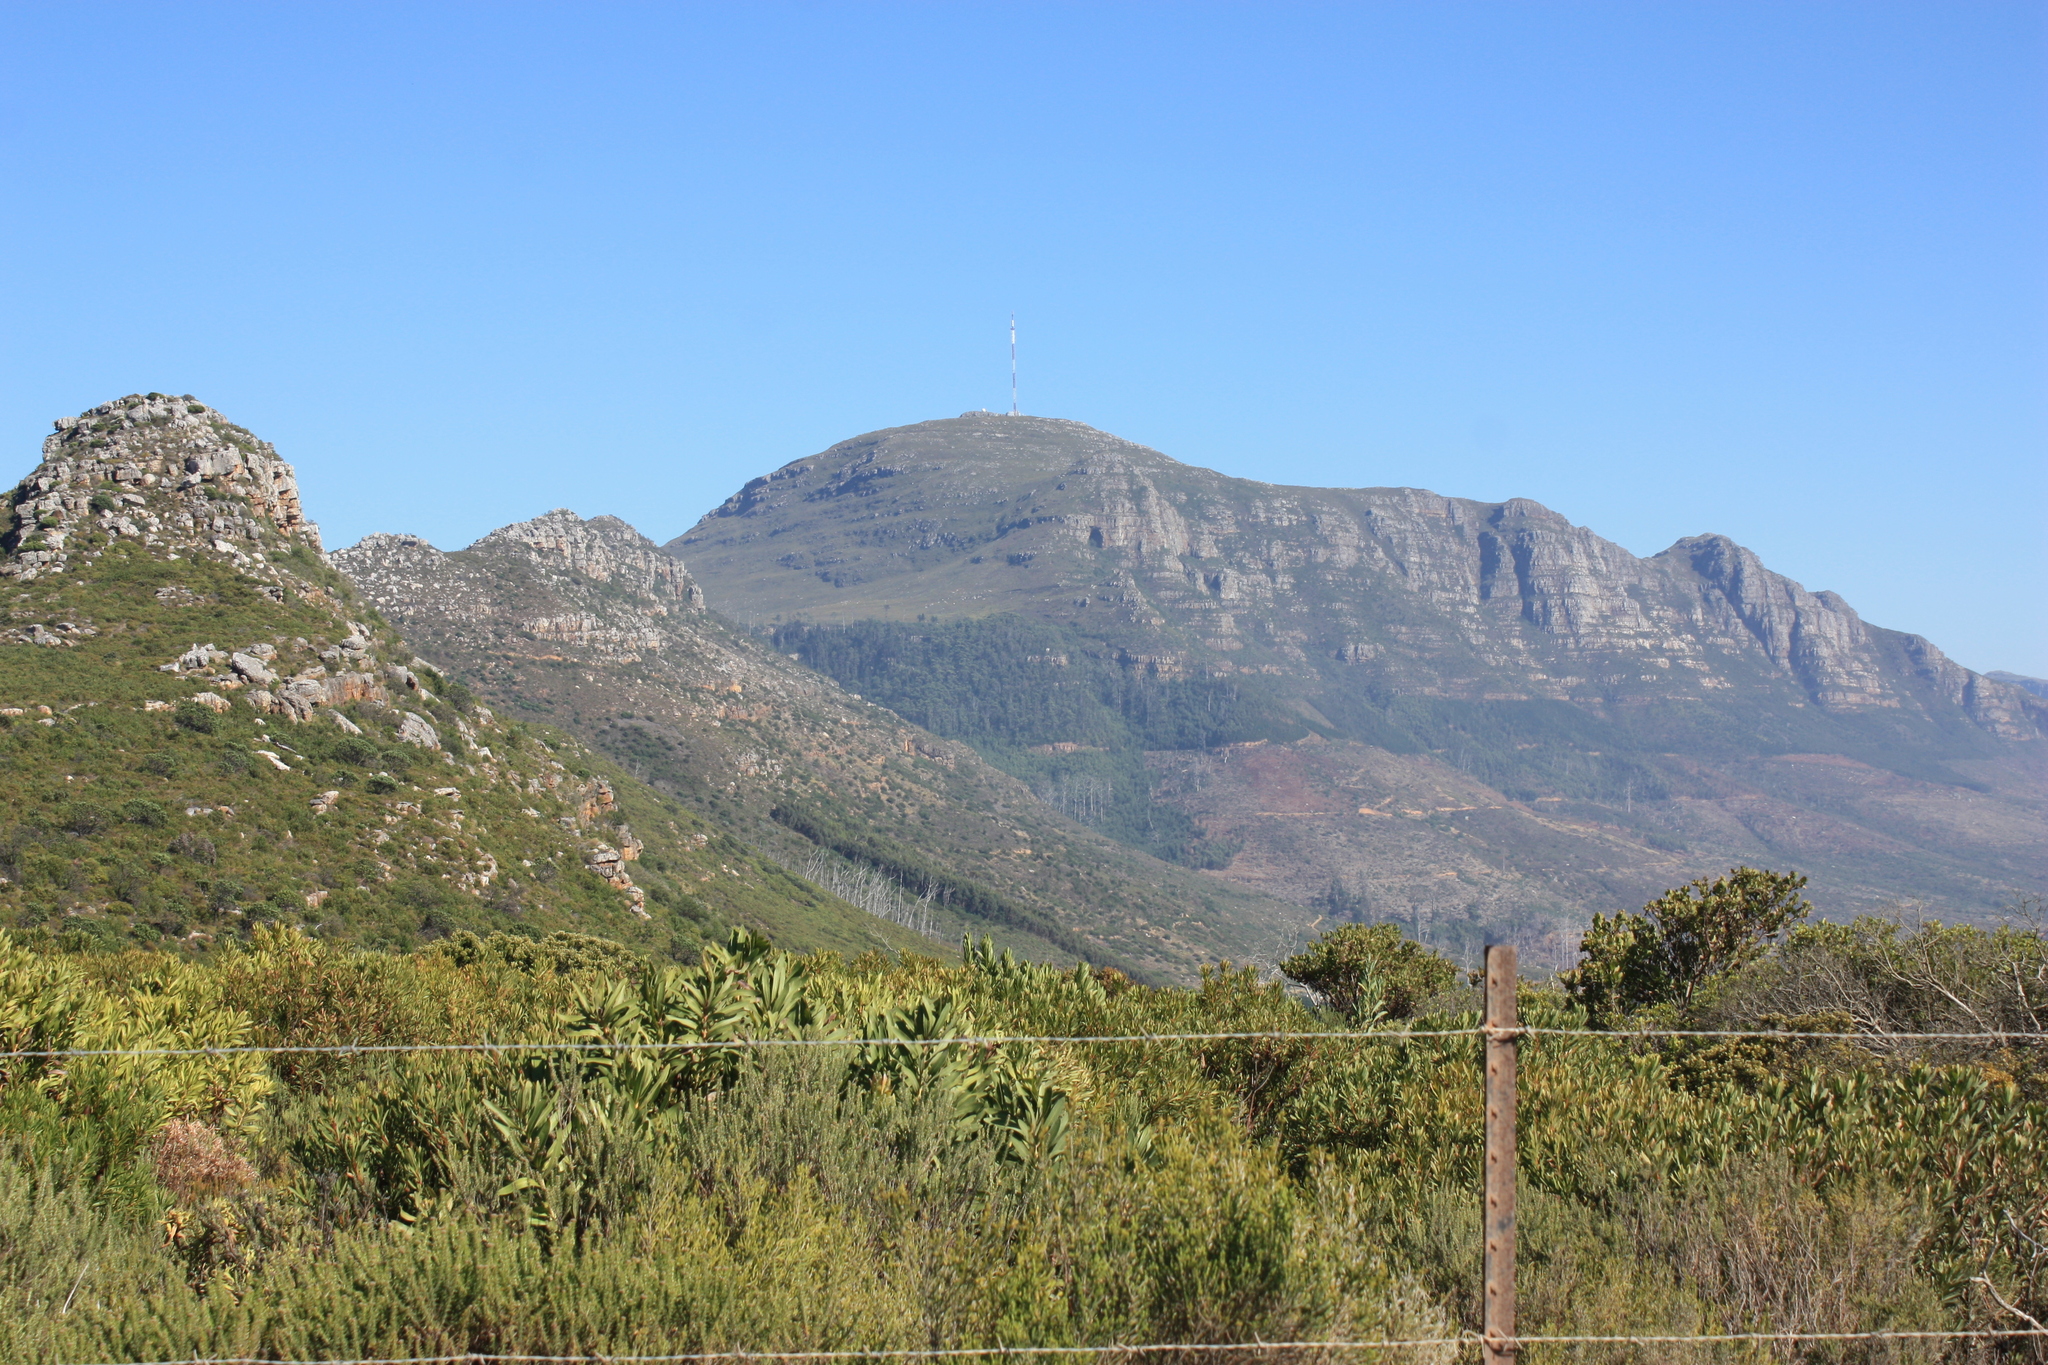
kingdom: Plantae
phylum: Tracheophyta
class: Magnoliopsida
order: Proteales
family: Proteaceae
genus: Protea
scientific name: Protea lepidocarpodendron
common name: Black-bearded protea
